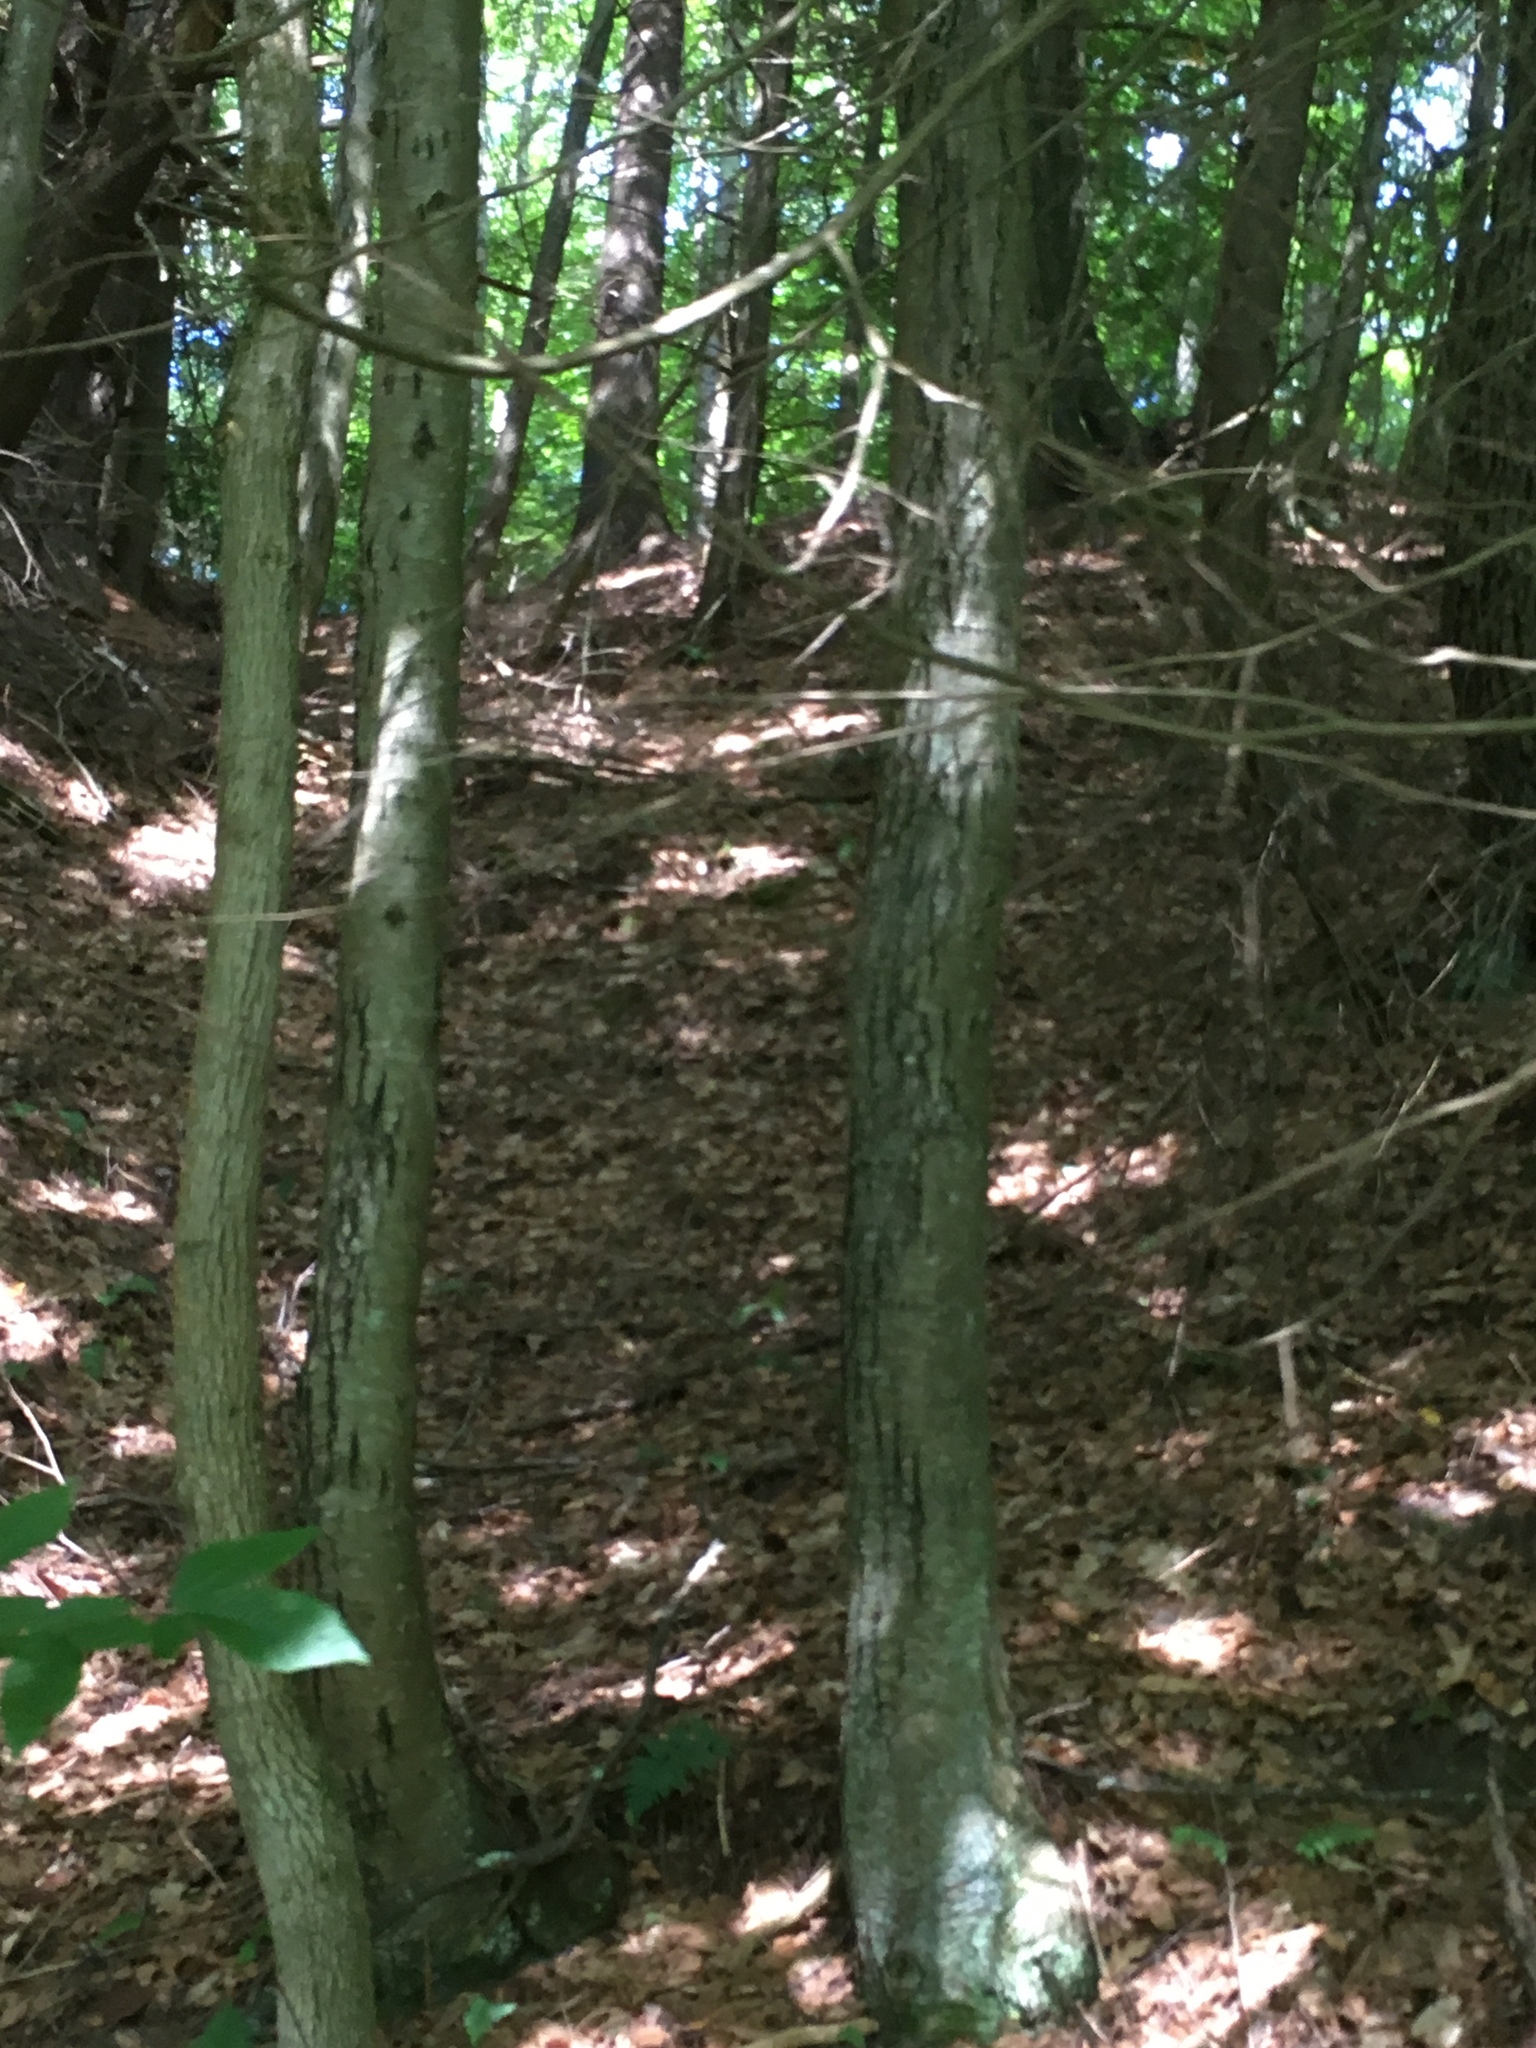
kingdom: Plantae
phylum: Tracheophyta
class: Magnoliopsida
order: Fagales
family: Betulaceae
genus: Betula
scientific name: Betula lenta
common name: Black birch
